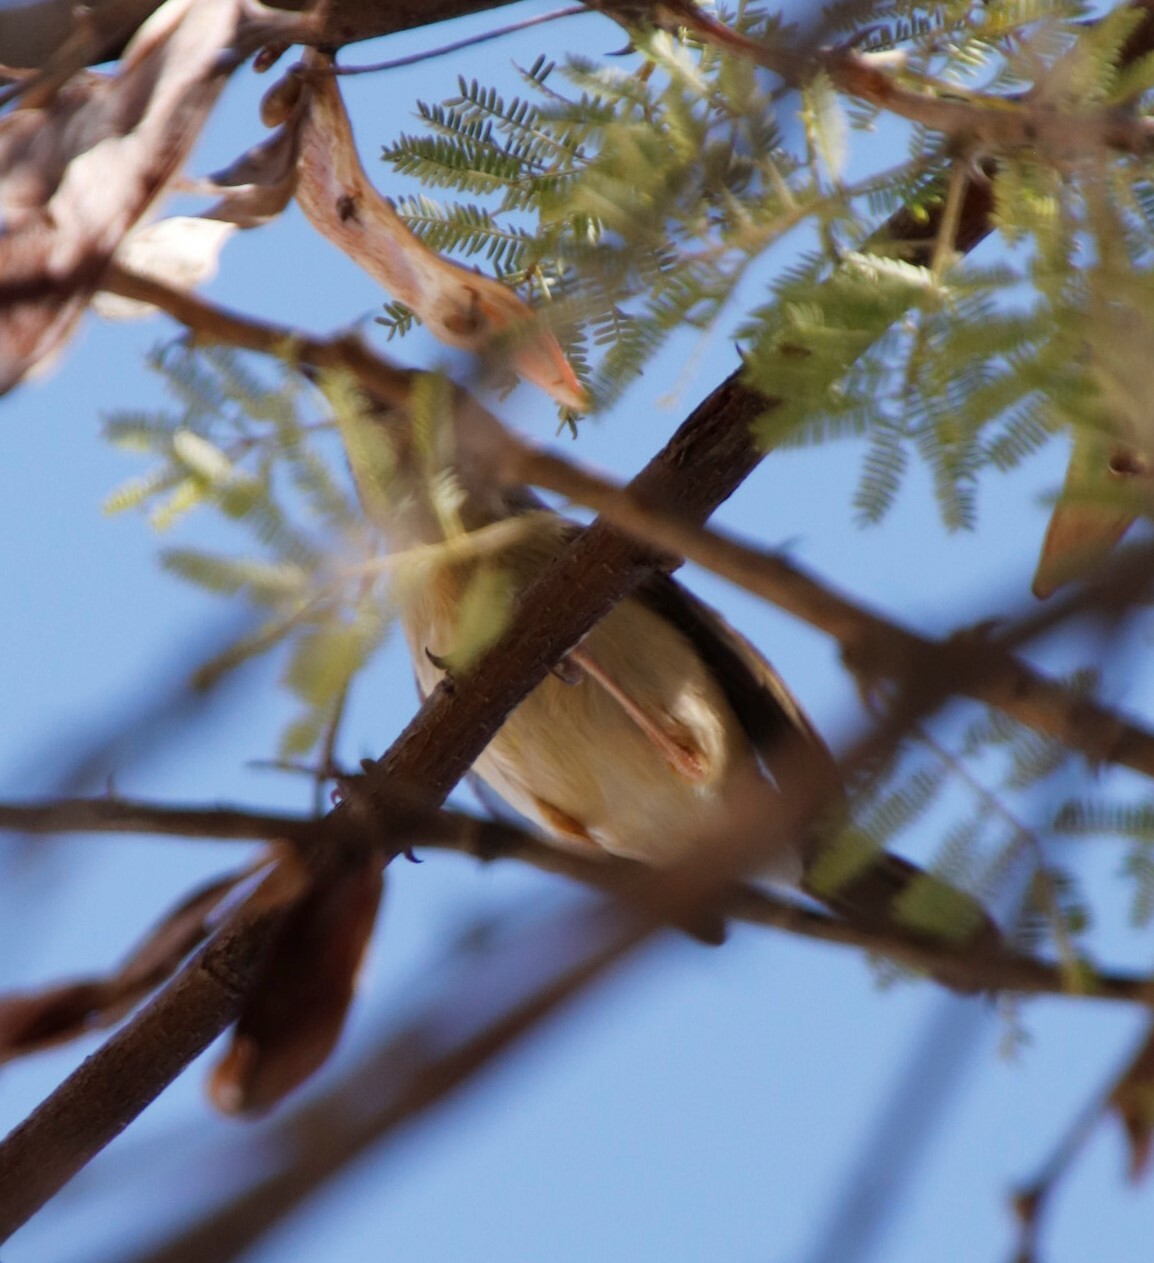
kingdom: Animalia
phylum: Chordata
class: Aves
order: Passeriformes
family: Cisticolidae
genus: Camaroptera
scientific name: Camaroptera brachyura
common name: Green-backed camaroptera
